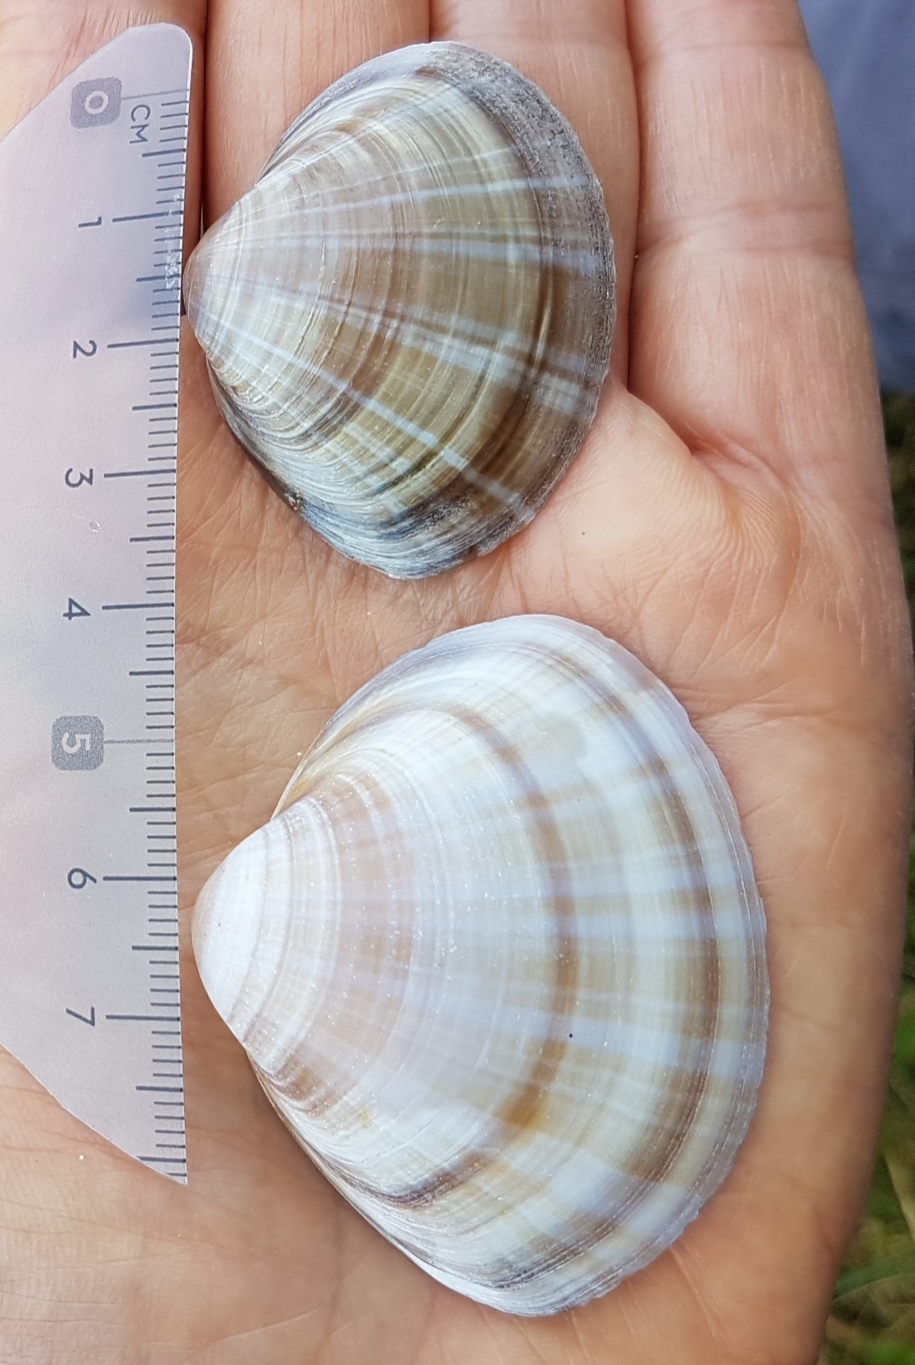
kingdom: Animalia
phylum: Mollusca
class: Bivalvia
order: Venerida
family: Mactridae
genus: Mactra
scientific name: Mactra stultorum
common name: Rayed trough shell
